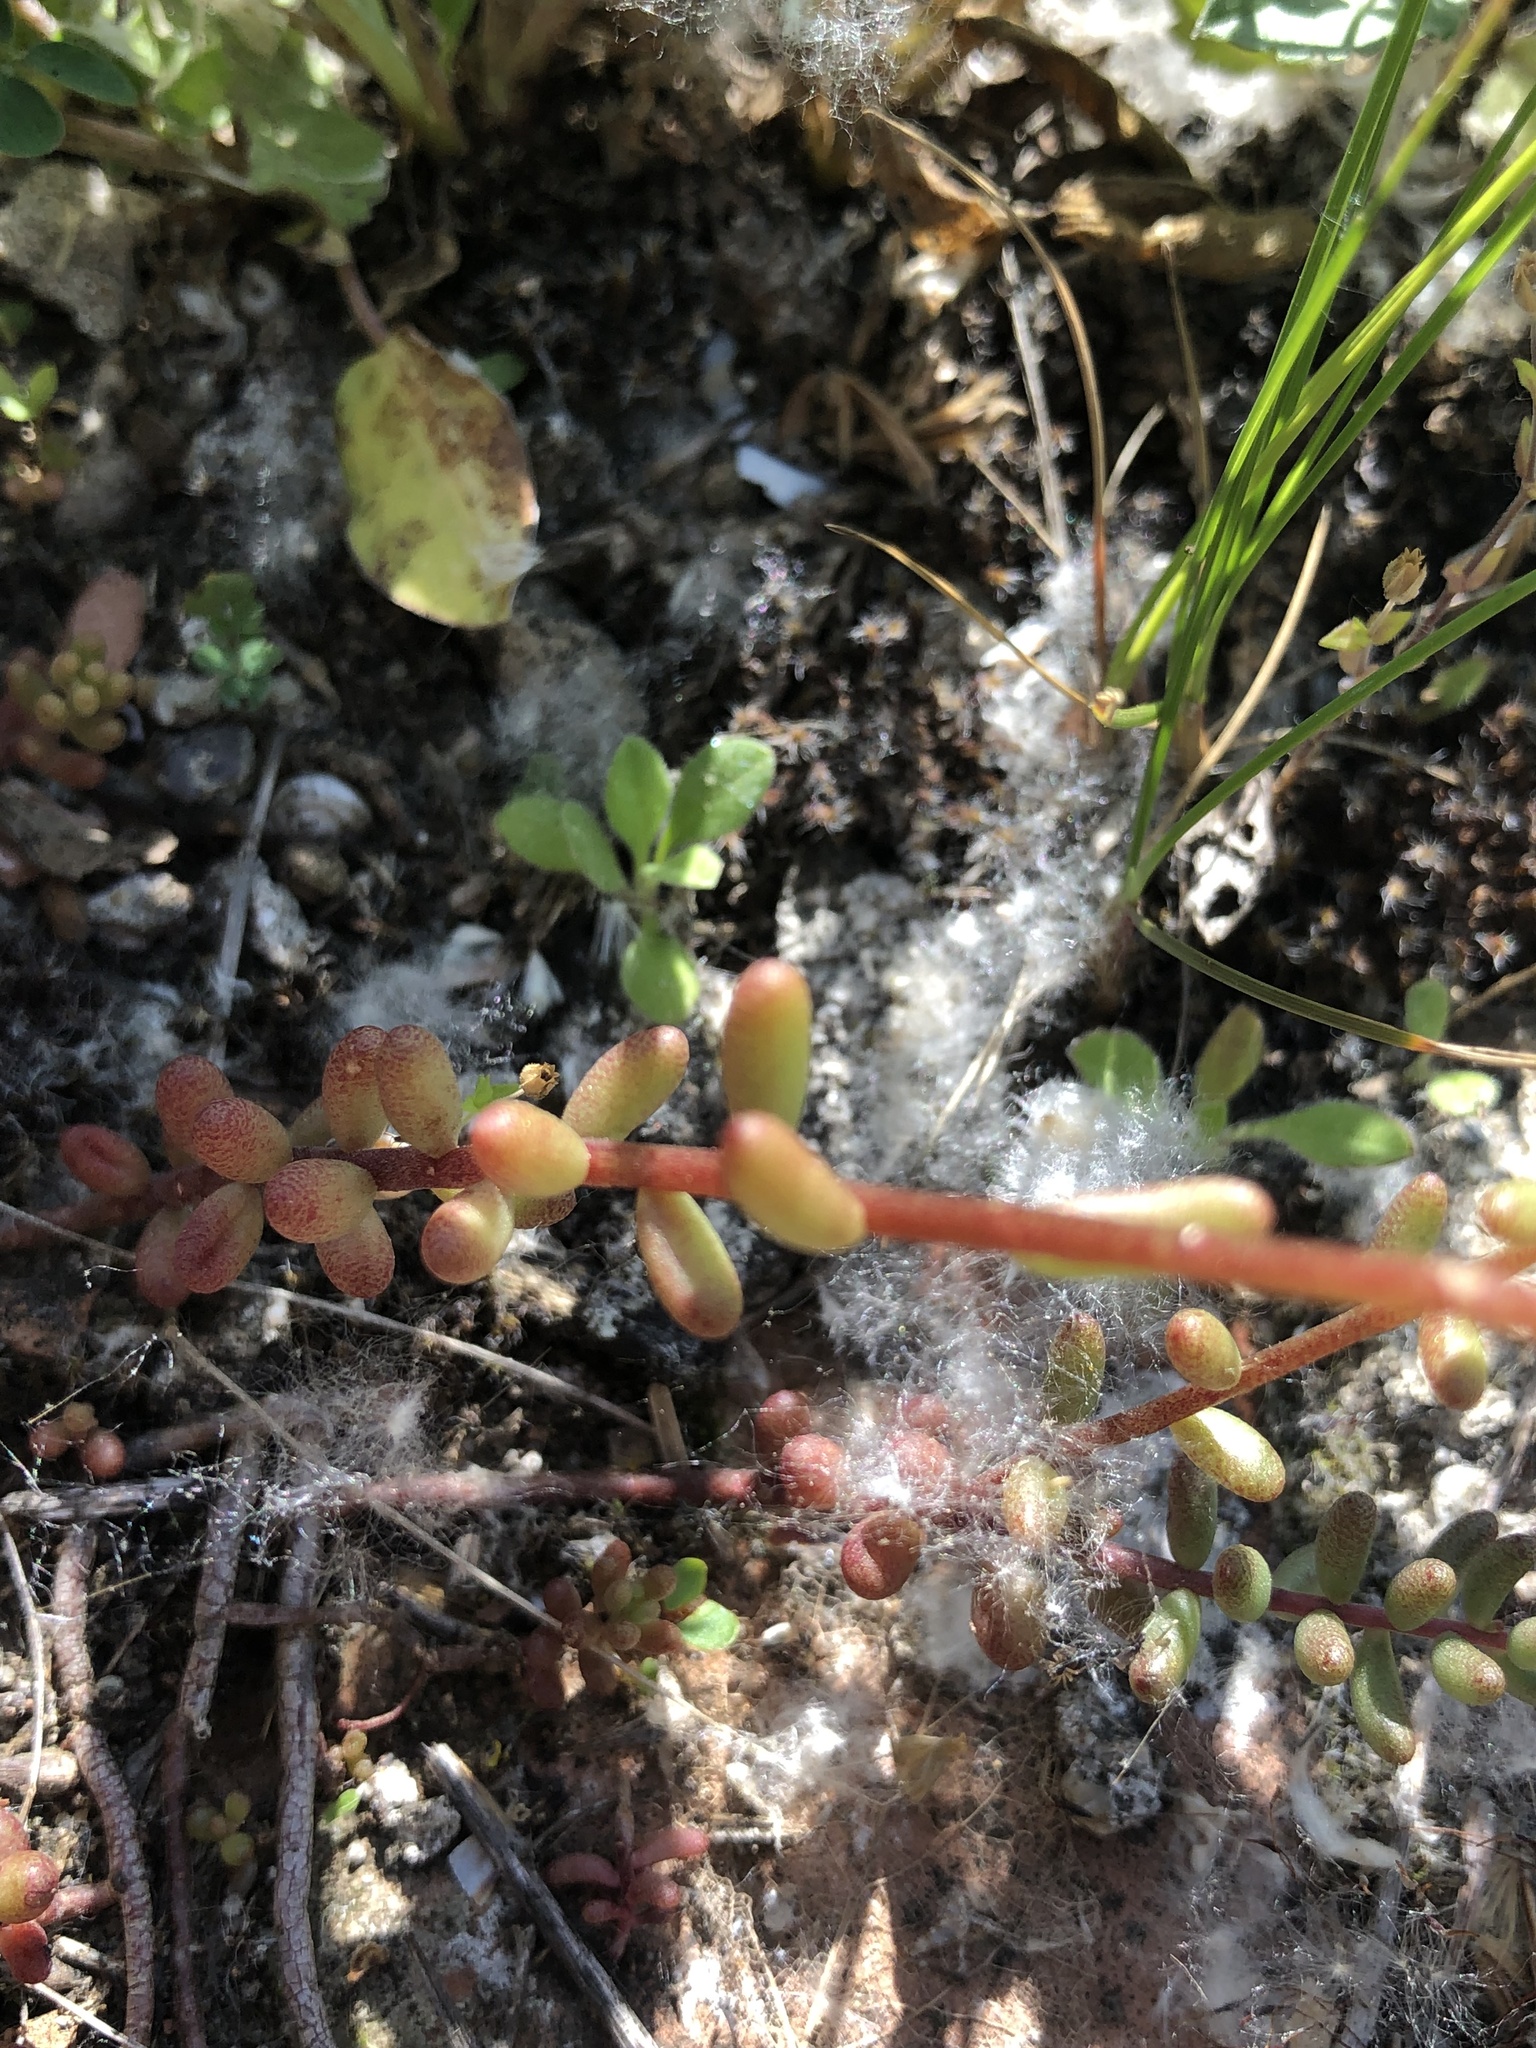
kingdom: Plantae
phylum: Tracheophyta
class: Magnoliopsida
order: Saxifragales
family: Crassulaceae
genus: Sedum
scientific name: Sedum album
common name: White stonecrop
